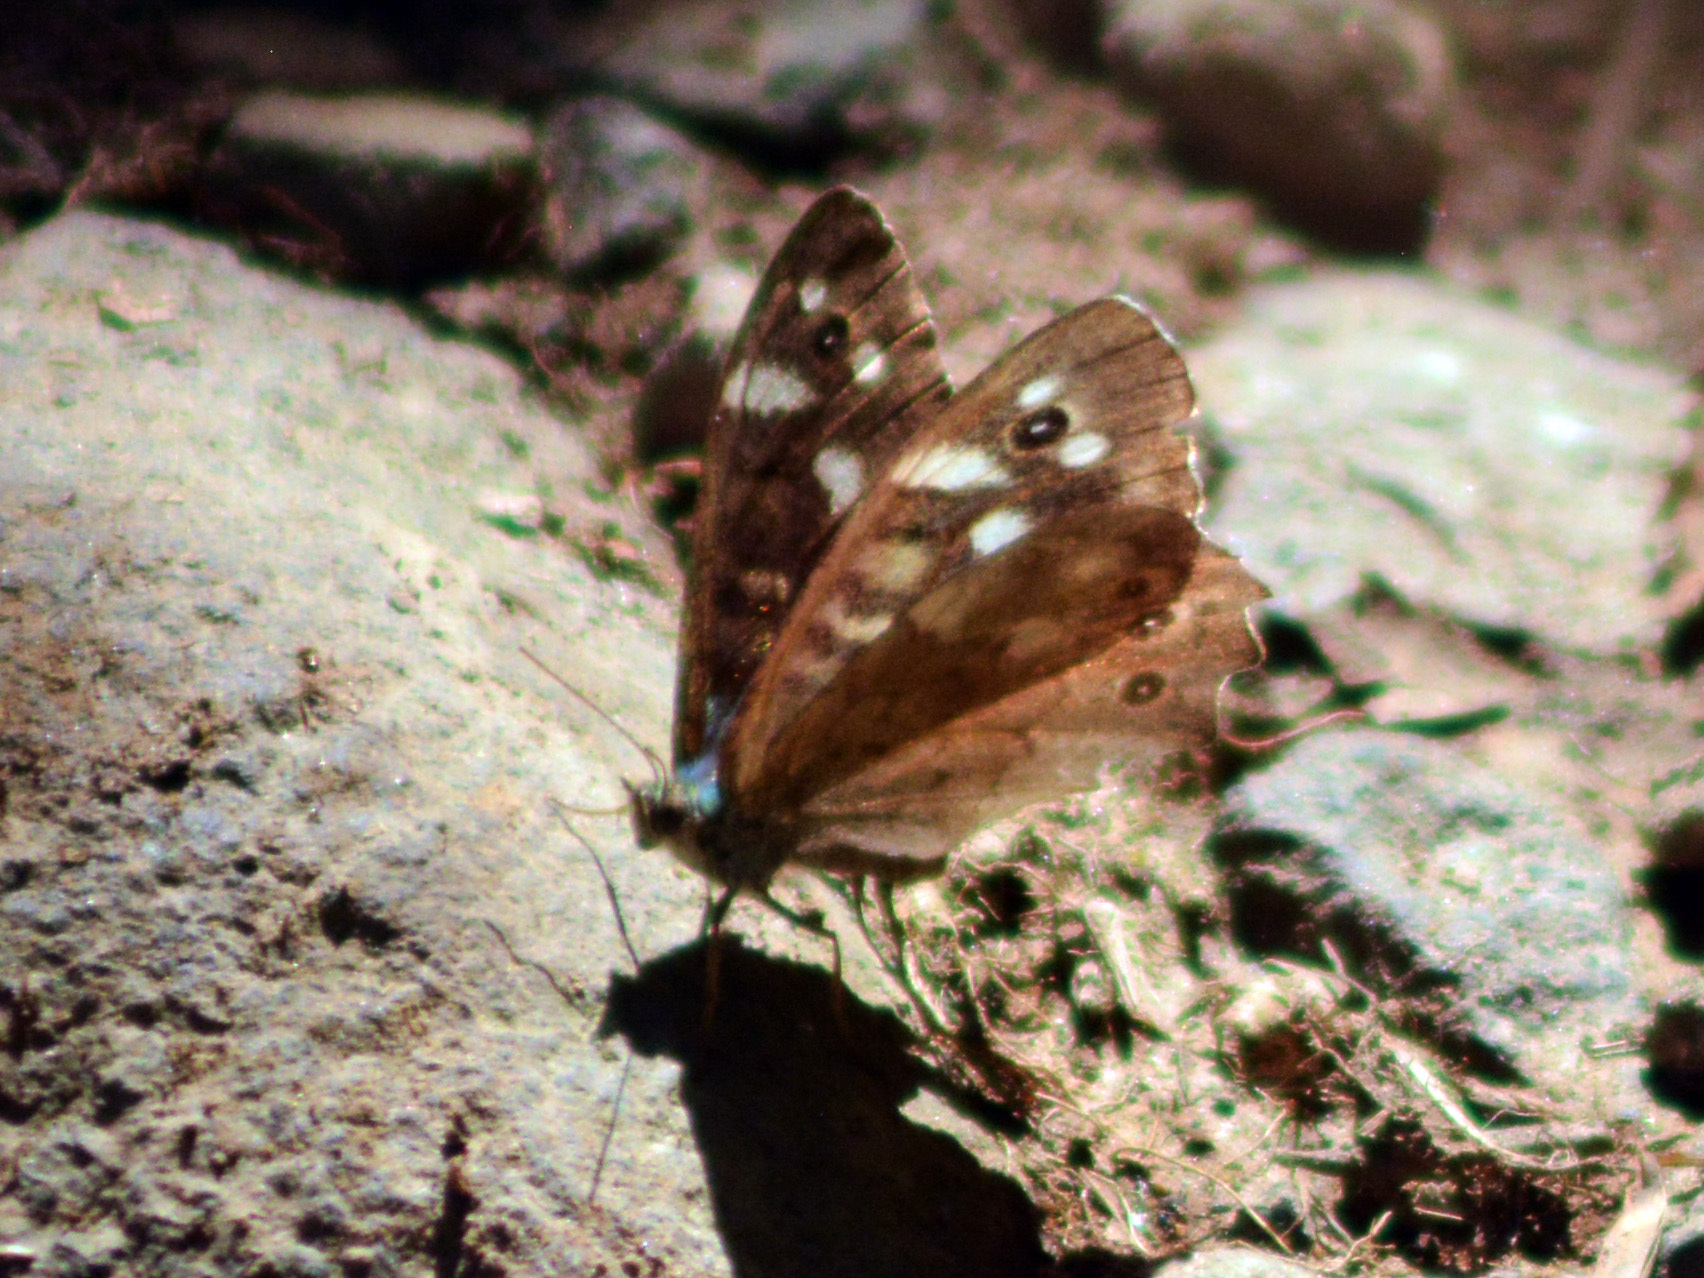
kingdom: Animalia
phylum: Arthropoda
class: Insecta
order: Lepidoptera
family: Nymphalidae
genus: Pararge
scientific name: Pararge aegeria
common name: Speckled wood
